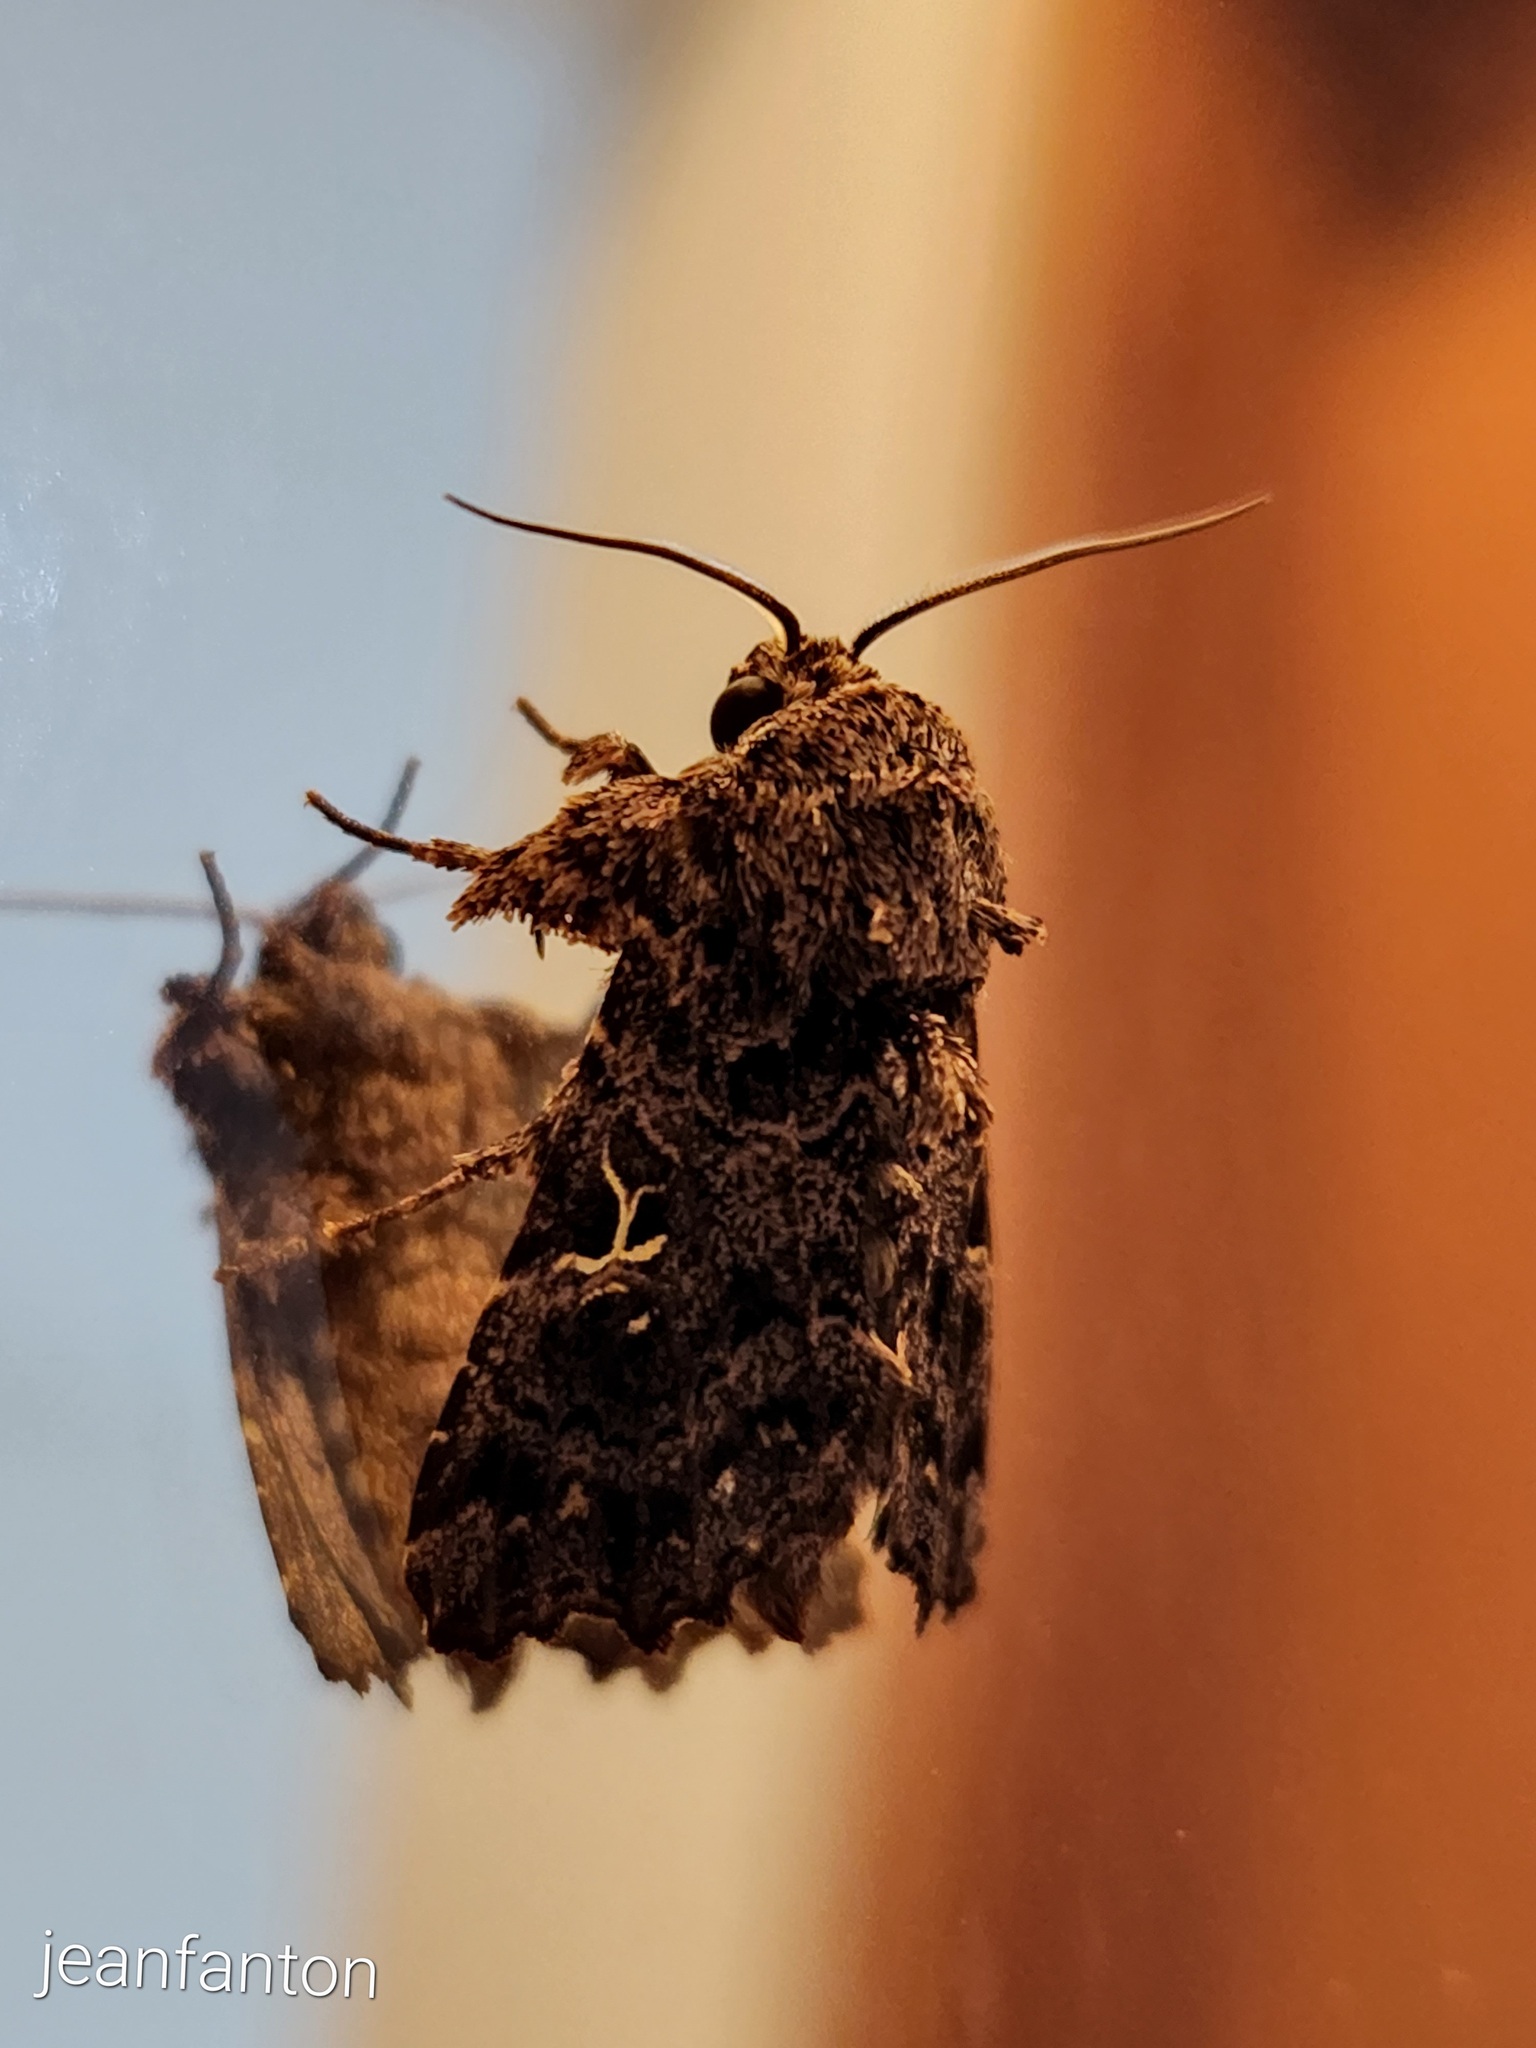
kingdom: Animalia
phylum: Arthropoda
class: Insecta
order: Lepidoptera
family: Noctuidae
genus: Argyrosticta
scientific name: Argyrosticta decumana
